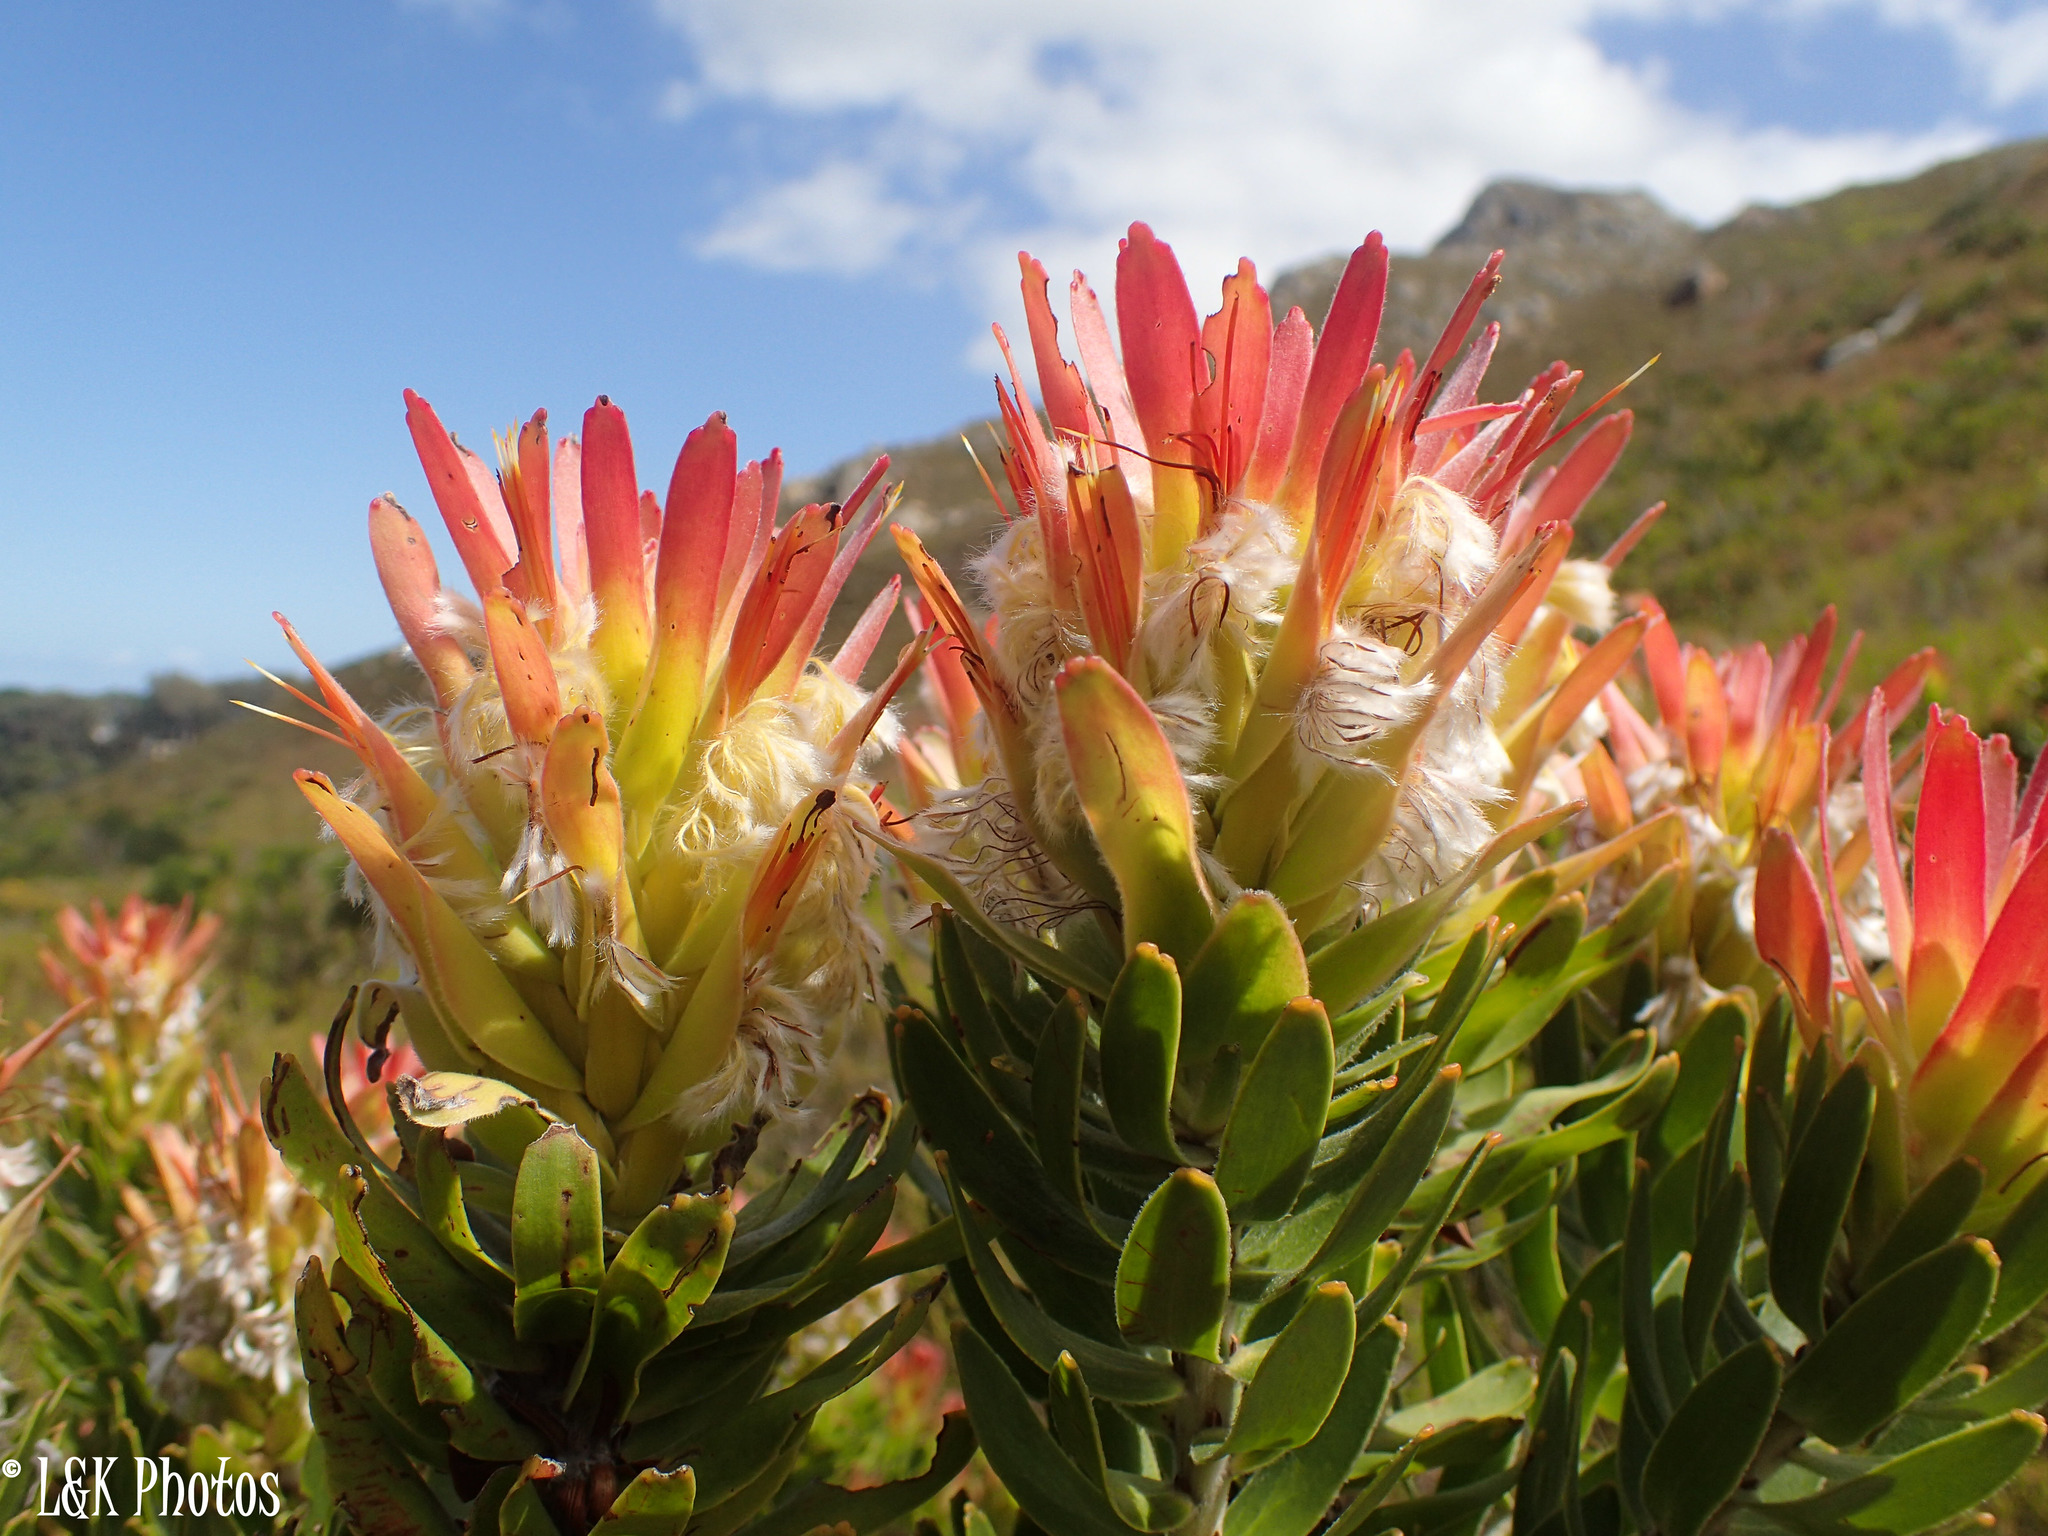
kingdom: Plantae
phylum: Tracheophyta
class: Magnoliopsida
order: Proteales
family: Proteaceae
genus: Mimetes
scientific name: Mimetes cucullatus
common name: Common pagoda
